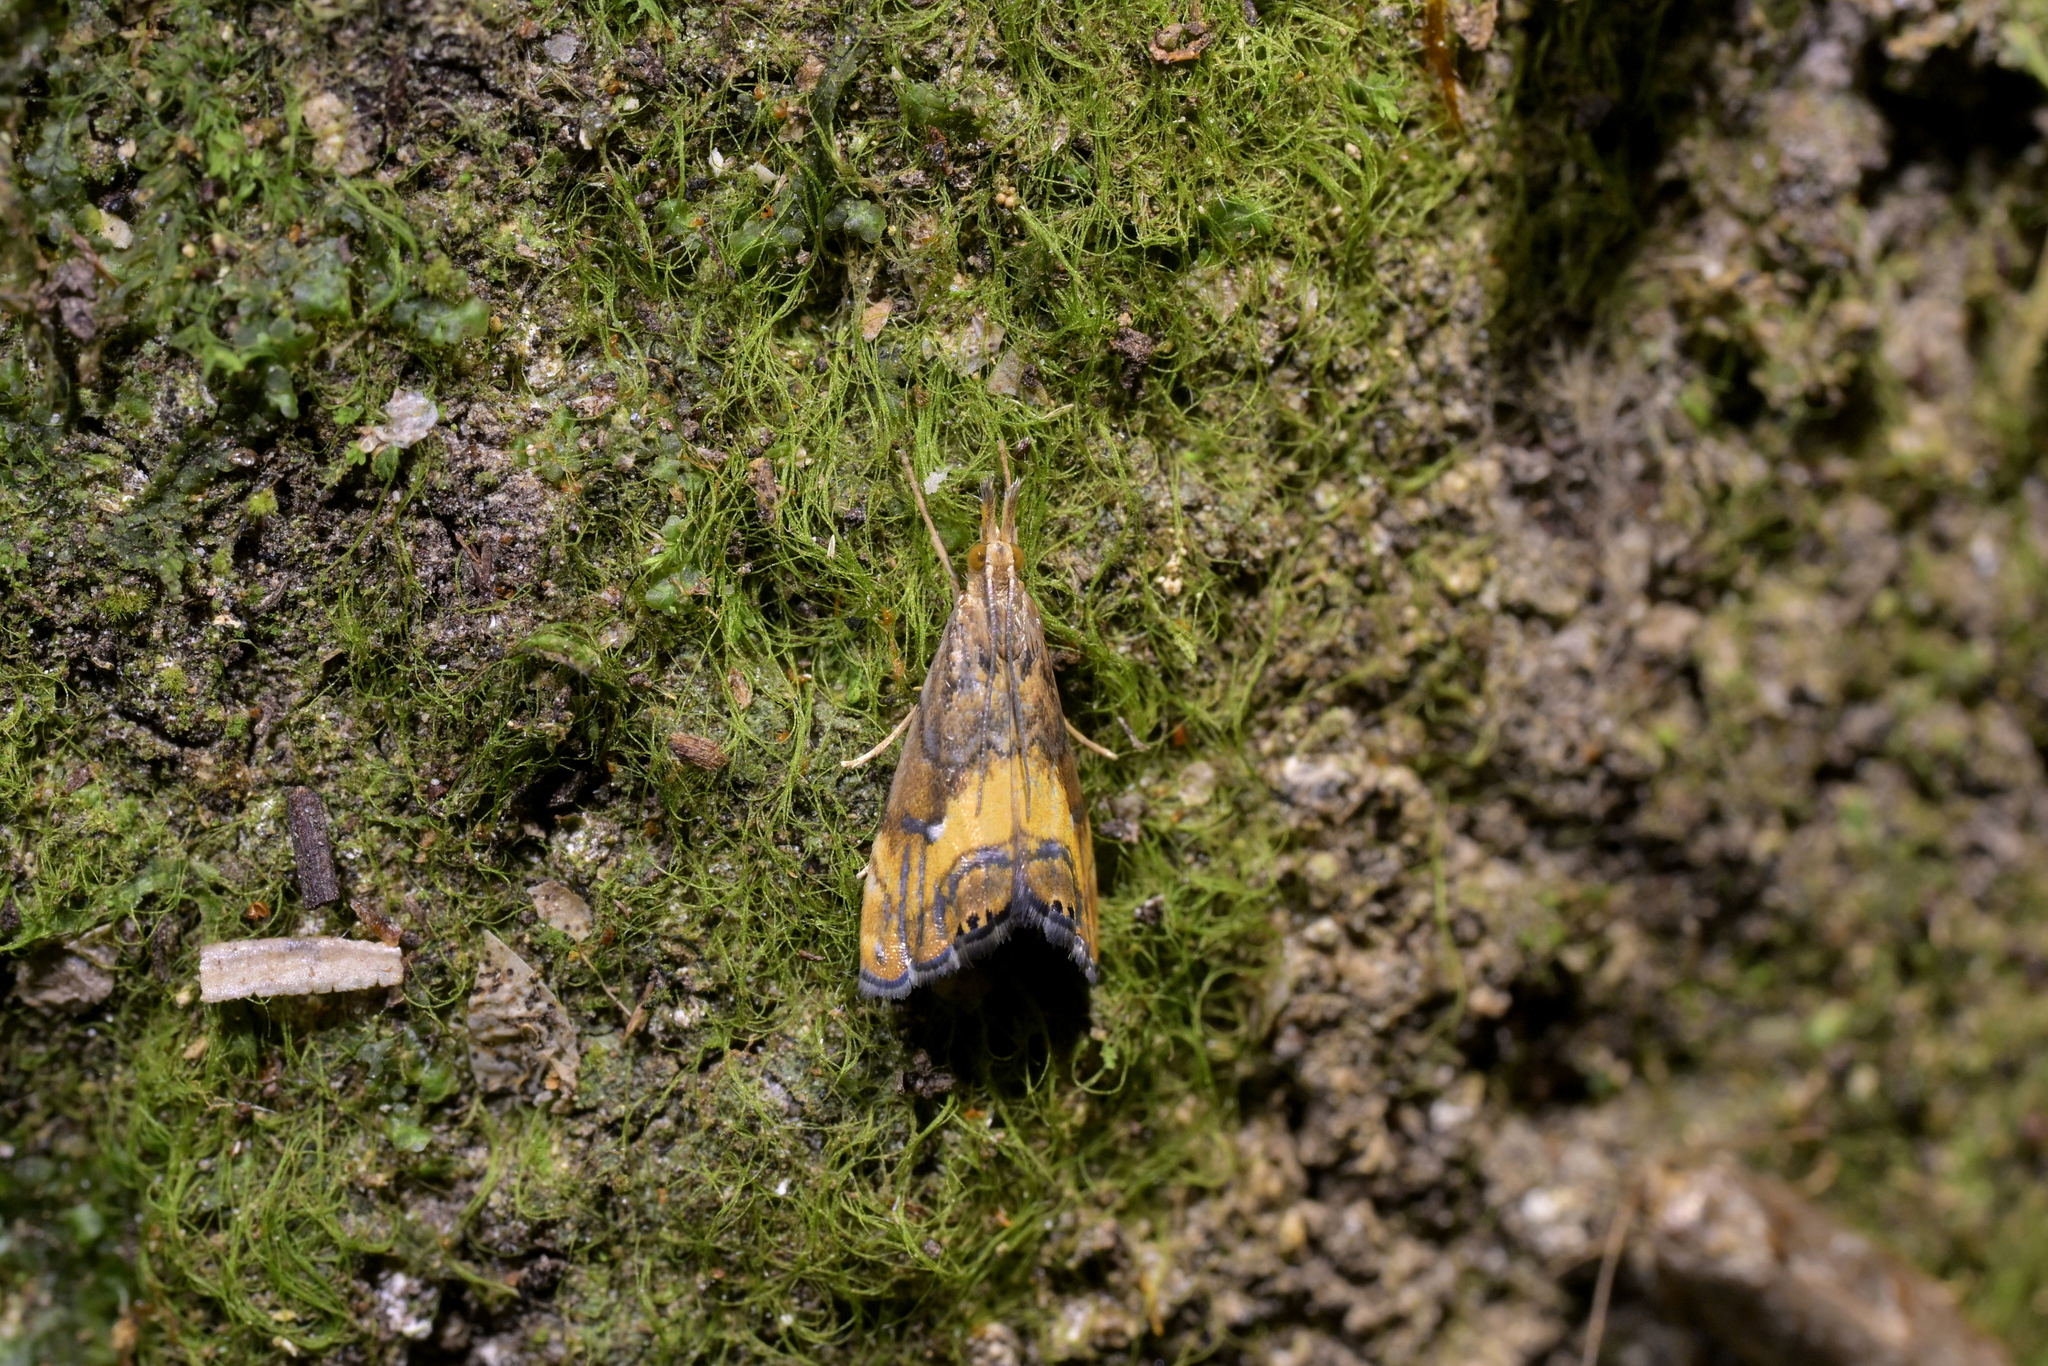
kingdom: Animalia
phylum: Arthropoda
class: Insecta
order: Lepidoptera
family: Crambidae
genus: Glaucocharis
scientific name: Glaucocharis chrysochyta
